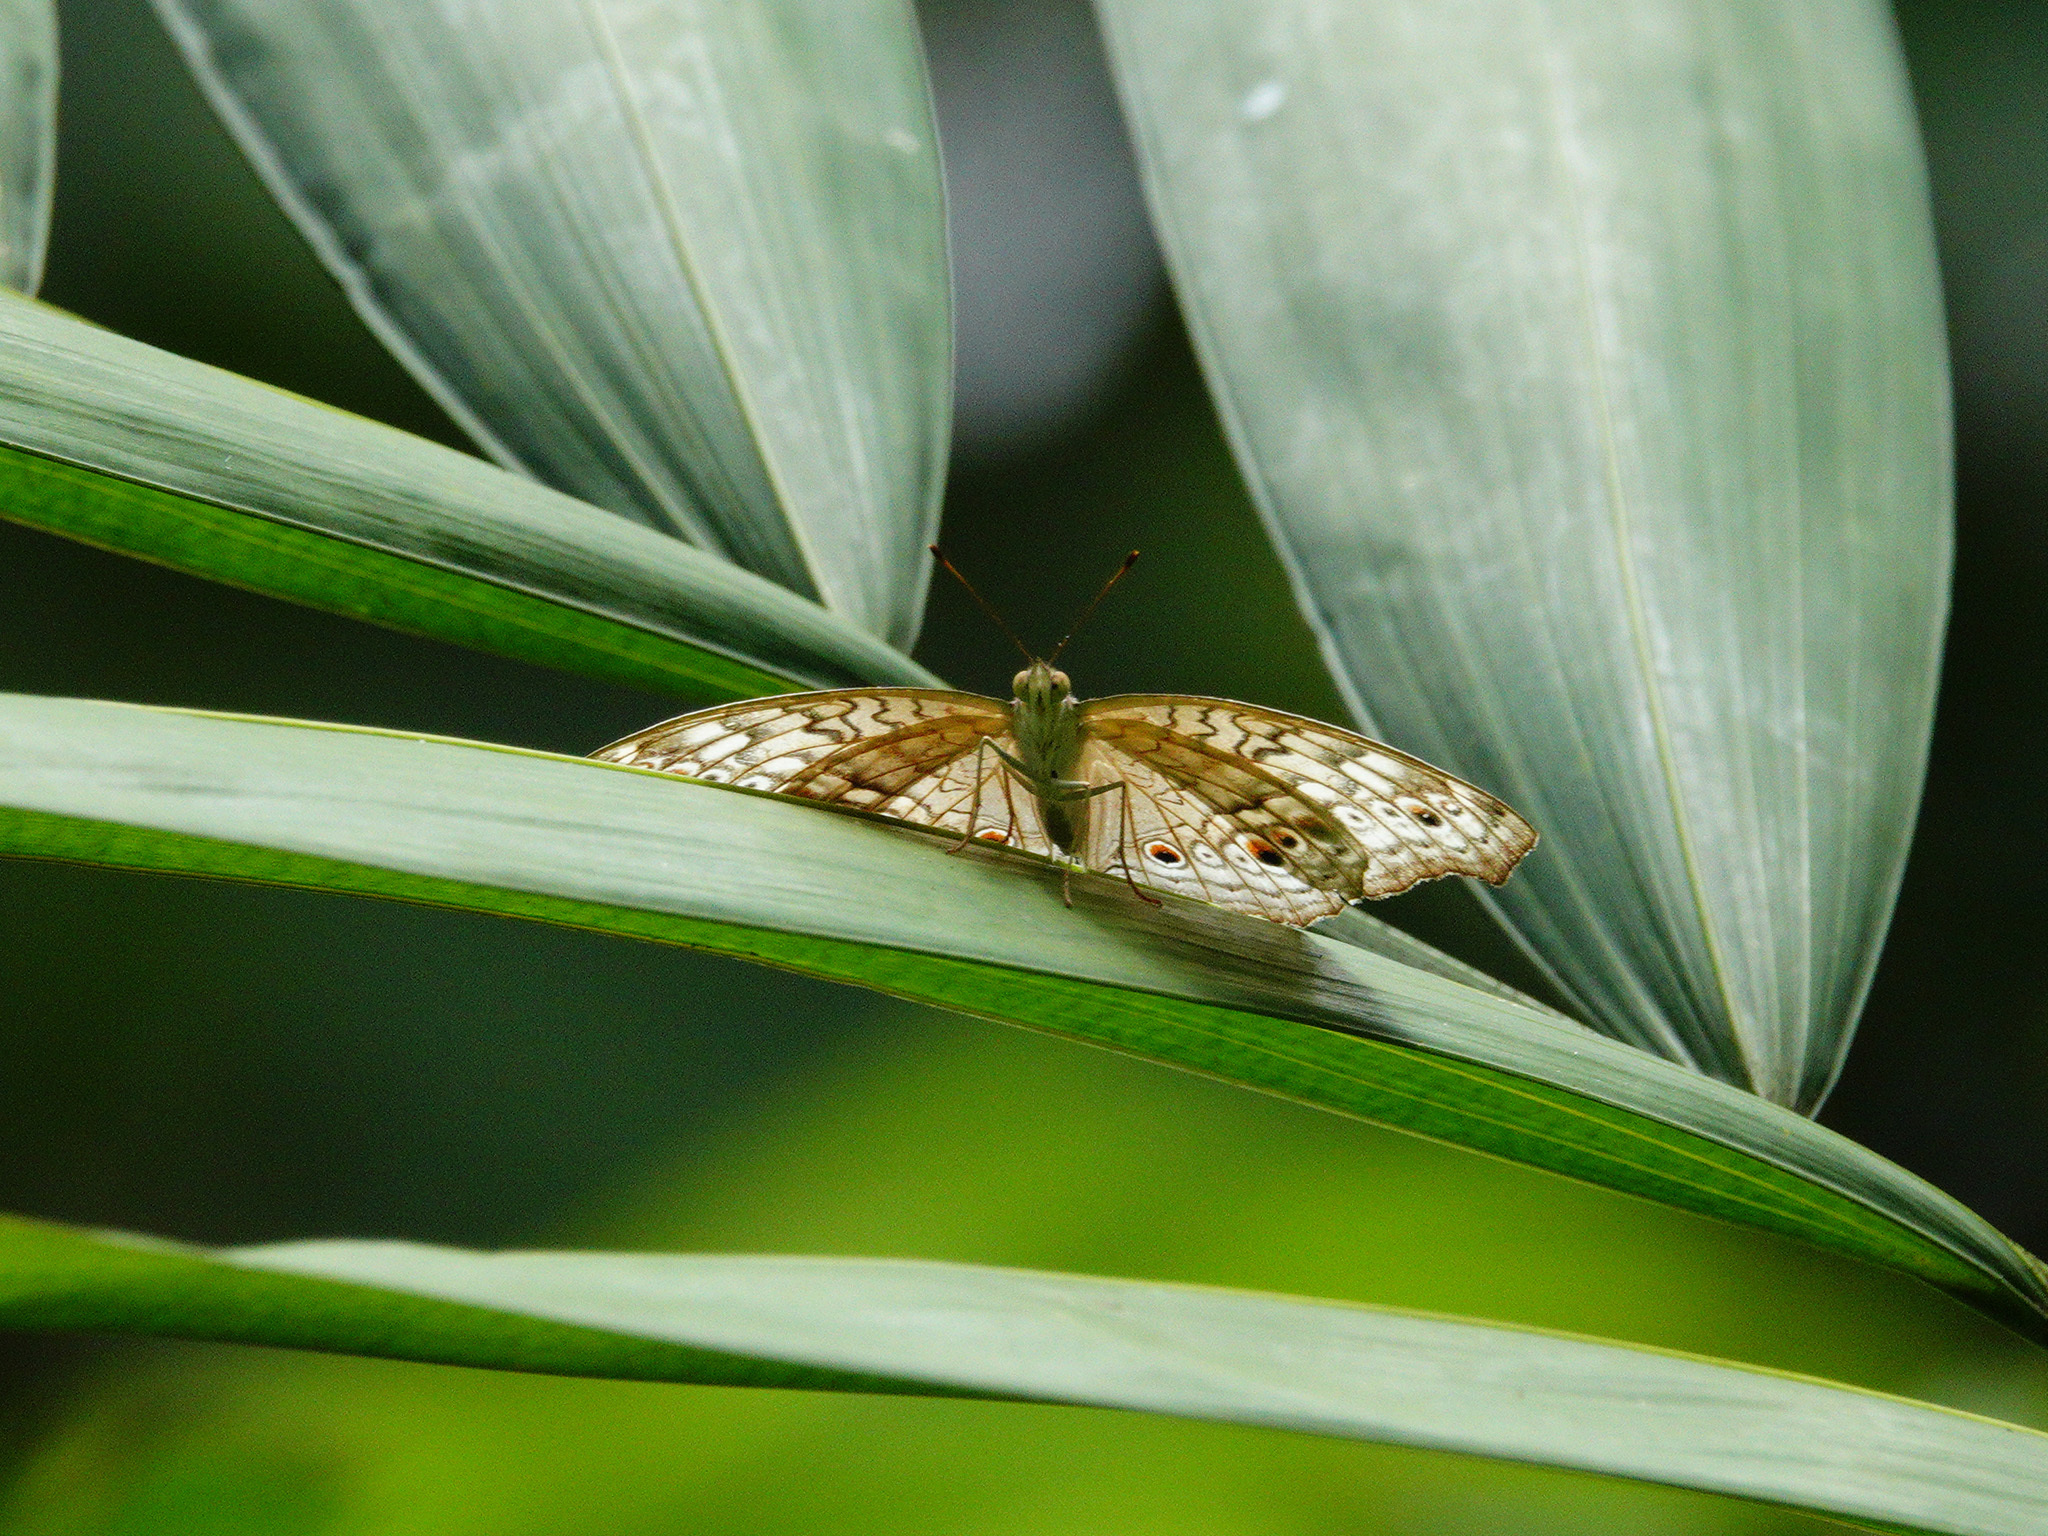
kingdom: Animalia
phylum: Arthropoda
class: Insecta
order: Lepidoptera
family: Nymphalidae
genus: Junonia
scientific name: Junonia atlites
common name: Grey pansy
